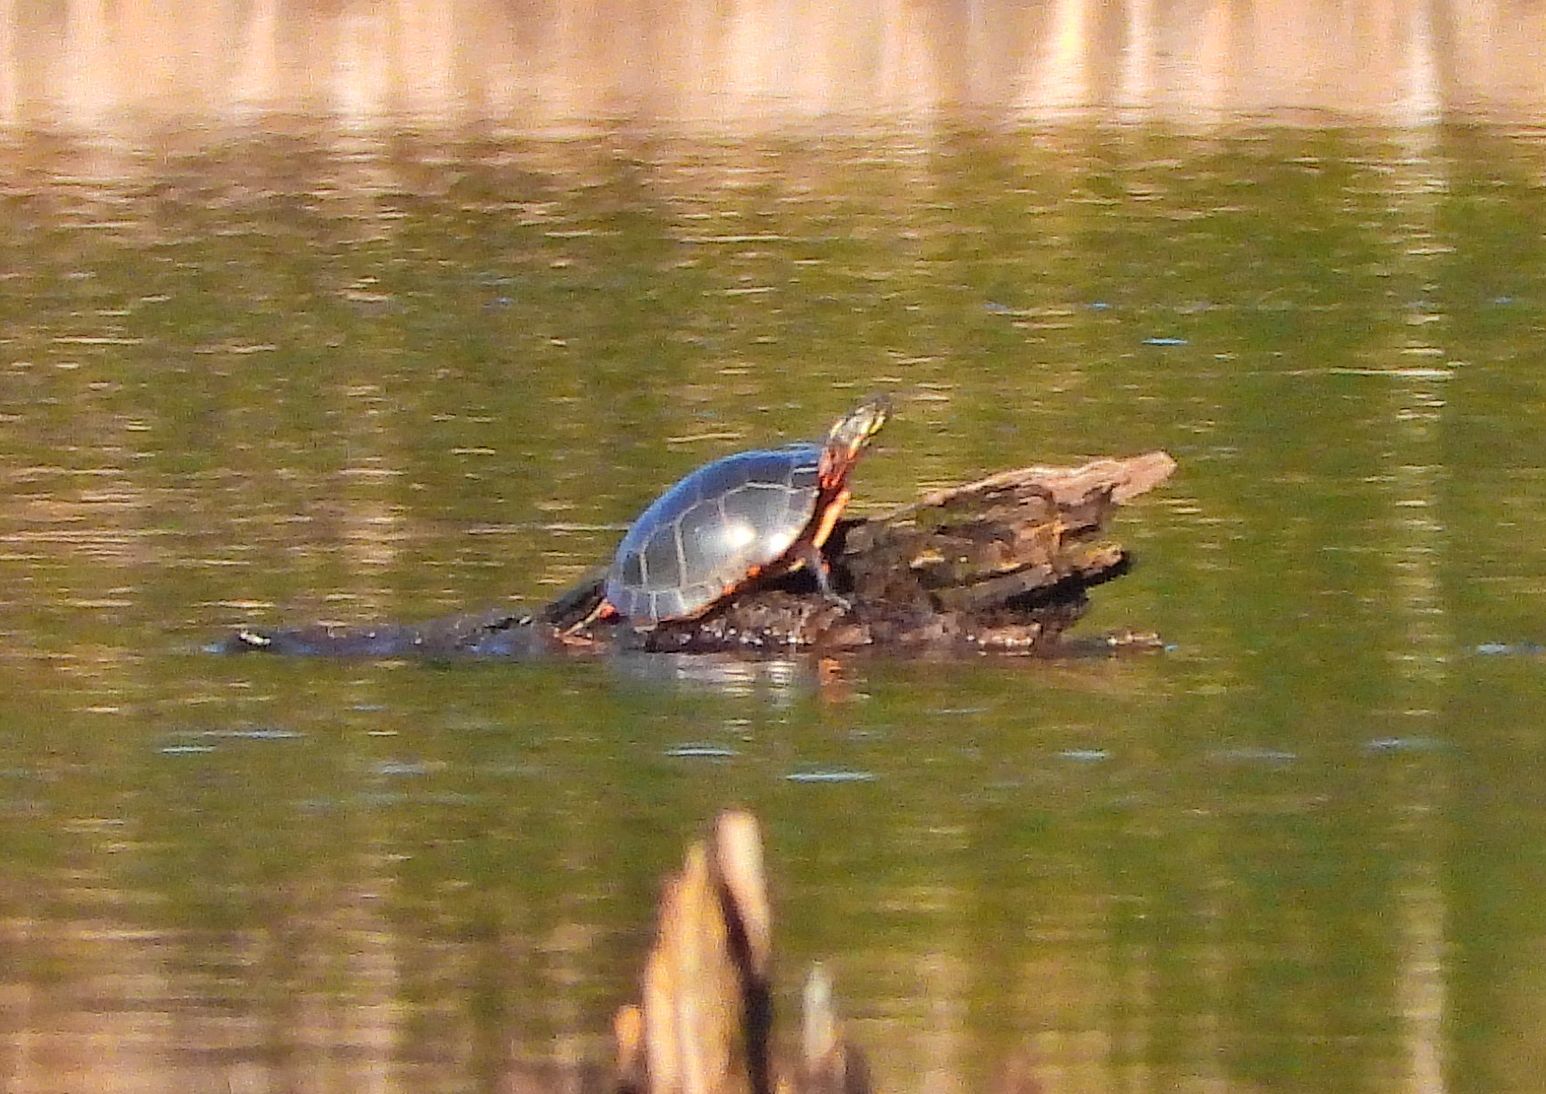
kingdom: Animalia
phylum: Chordata
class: Testudines
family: Emydidae
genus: Chrysemys
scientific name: Chrysemys picta
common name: Painted turtle
